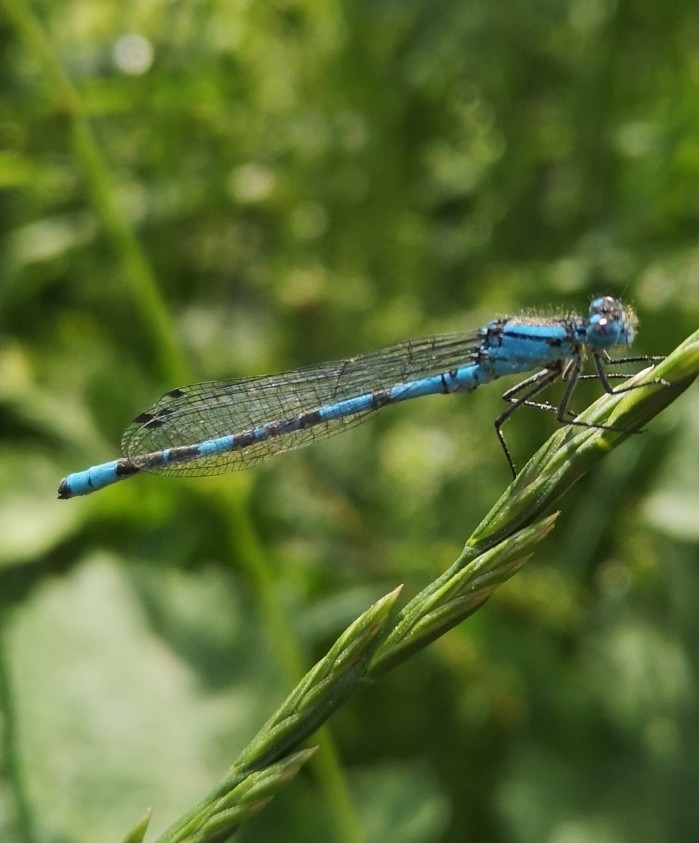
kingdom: Animalia
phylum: Arthropoda
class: Insecta
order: Odonata
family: Coenagrionidae
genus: Enallagma
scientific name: Enallagma cyathigerum
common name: Common blue damselfly
